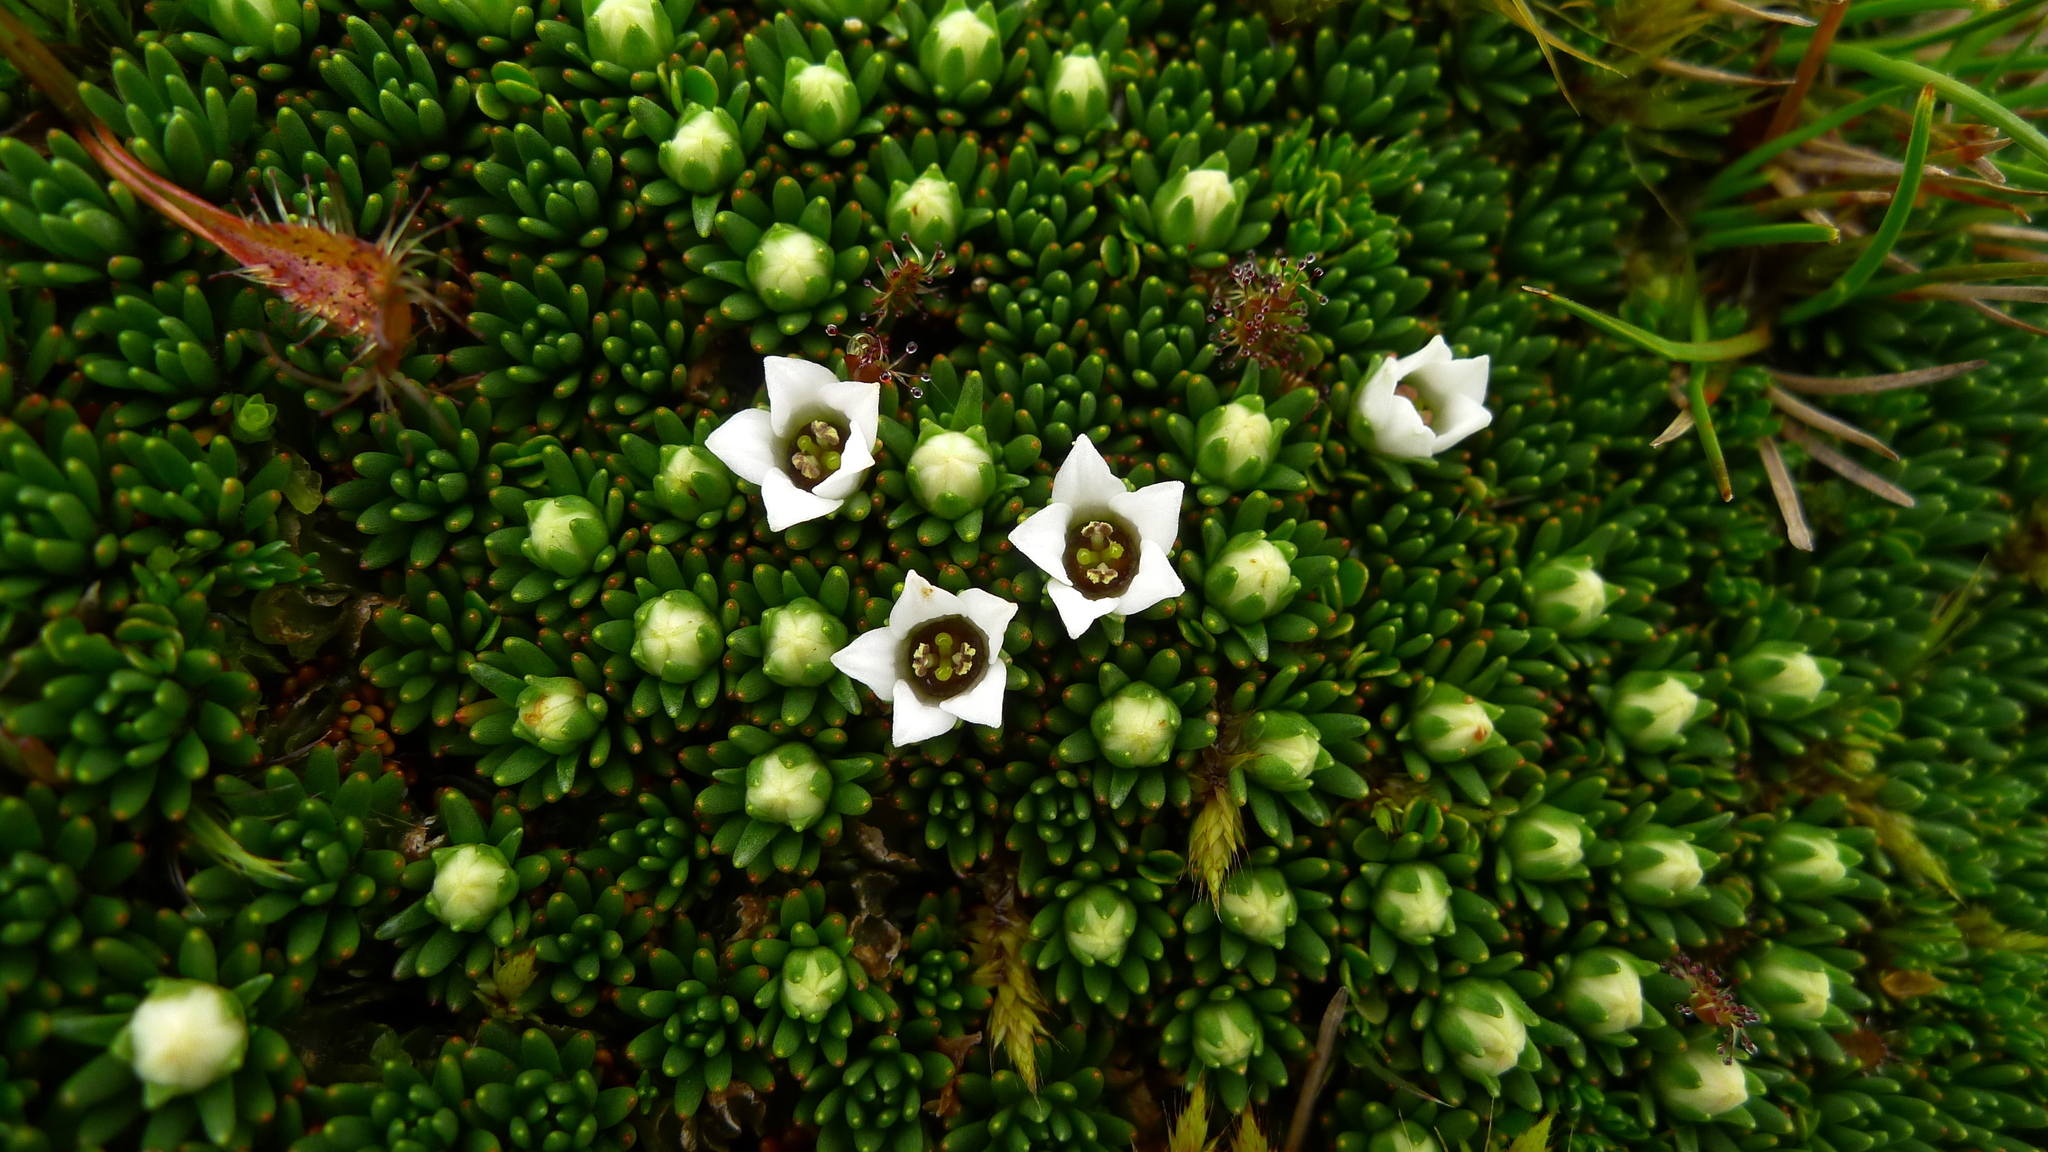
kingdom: Plantae
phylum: Tracheophyta
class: Magnoliopsida
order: Asterales
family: Stylidiaceae
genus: Donatia
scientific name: Donatia novae-zelandiae
